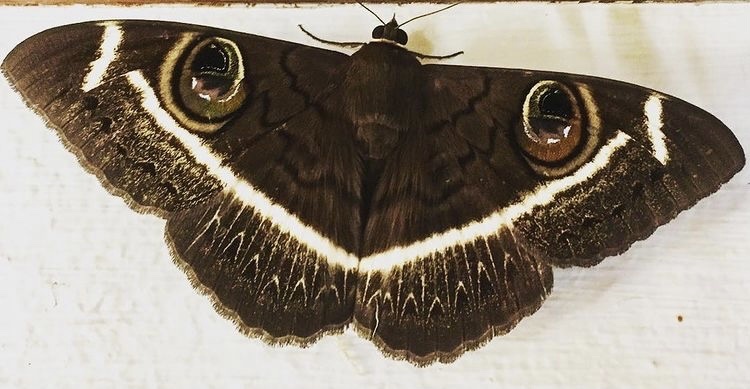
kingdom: Animalia
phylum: Arthropoda
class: Insecta
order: Lepidoptera
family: Erebidae
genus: Cyligramma
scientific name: Cyligramma latona
